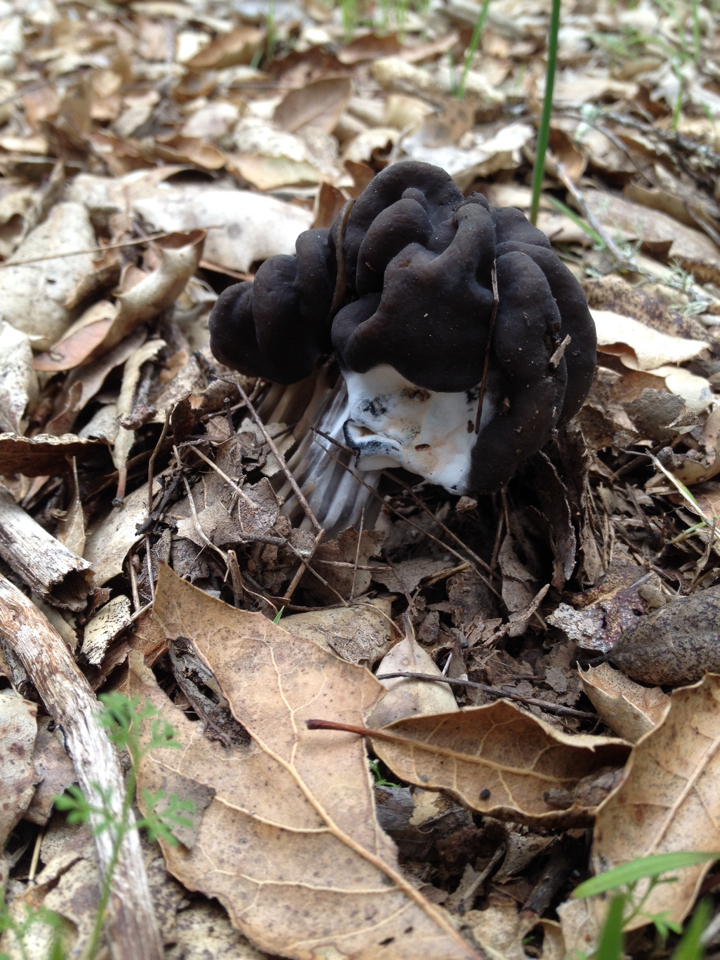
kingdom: Fungi
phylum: Ascomycota
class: Pezizomycetes
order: Pezizales
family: Helvellaceae
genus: Helvella
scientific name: Helvella dryophila
